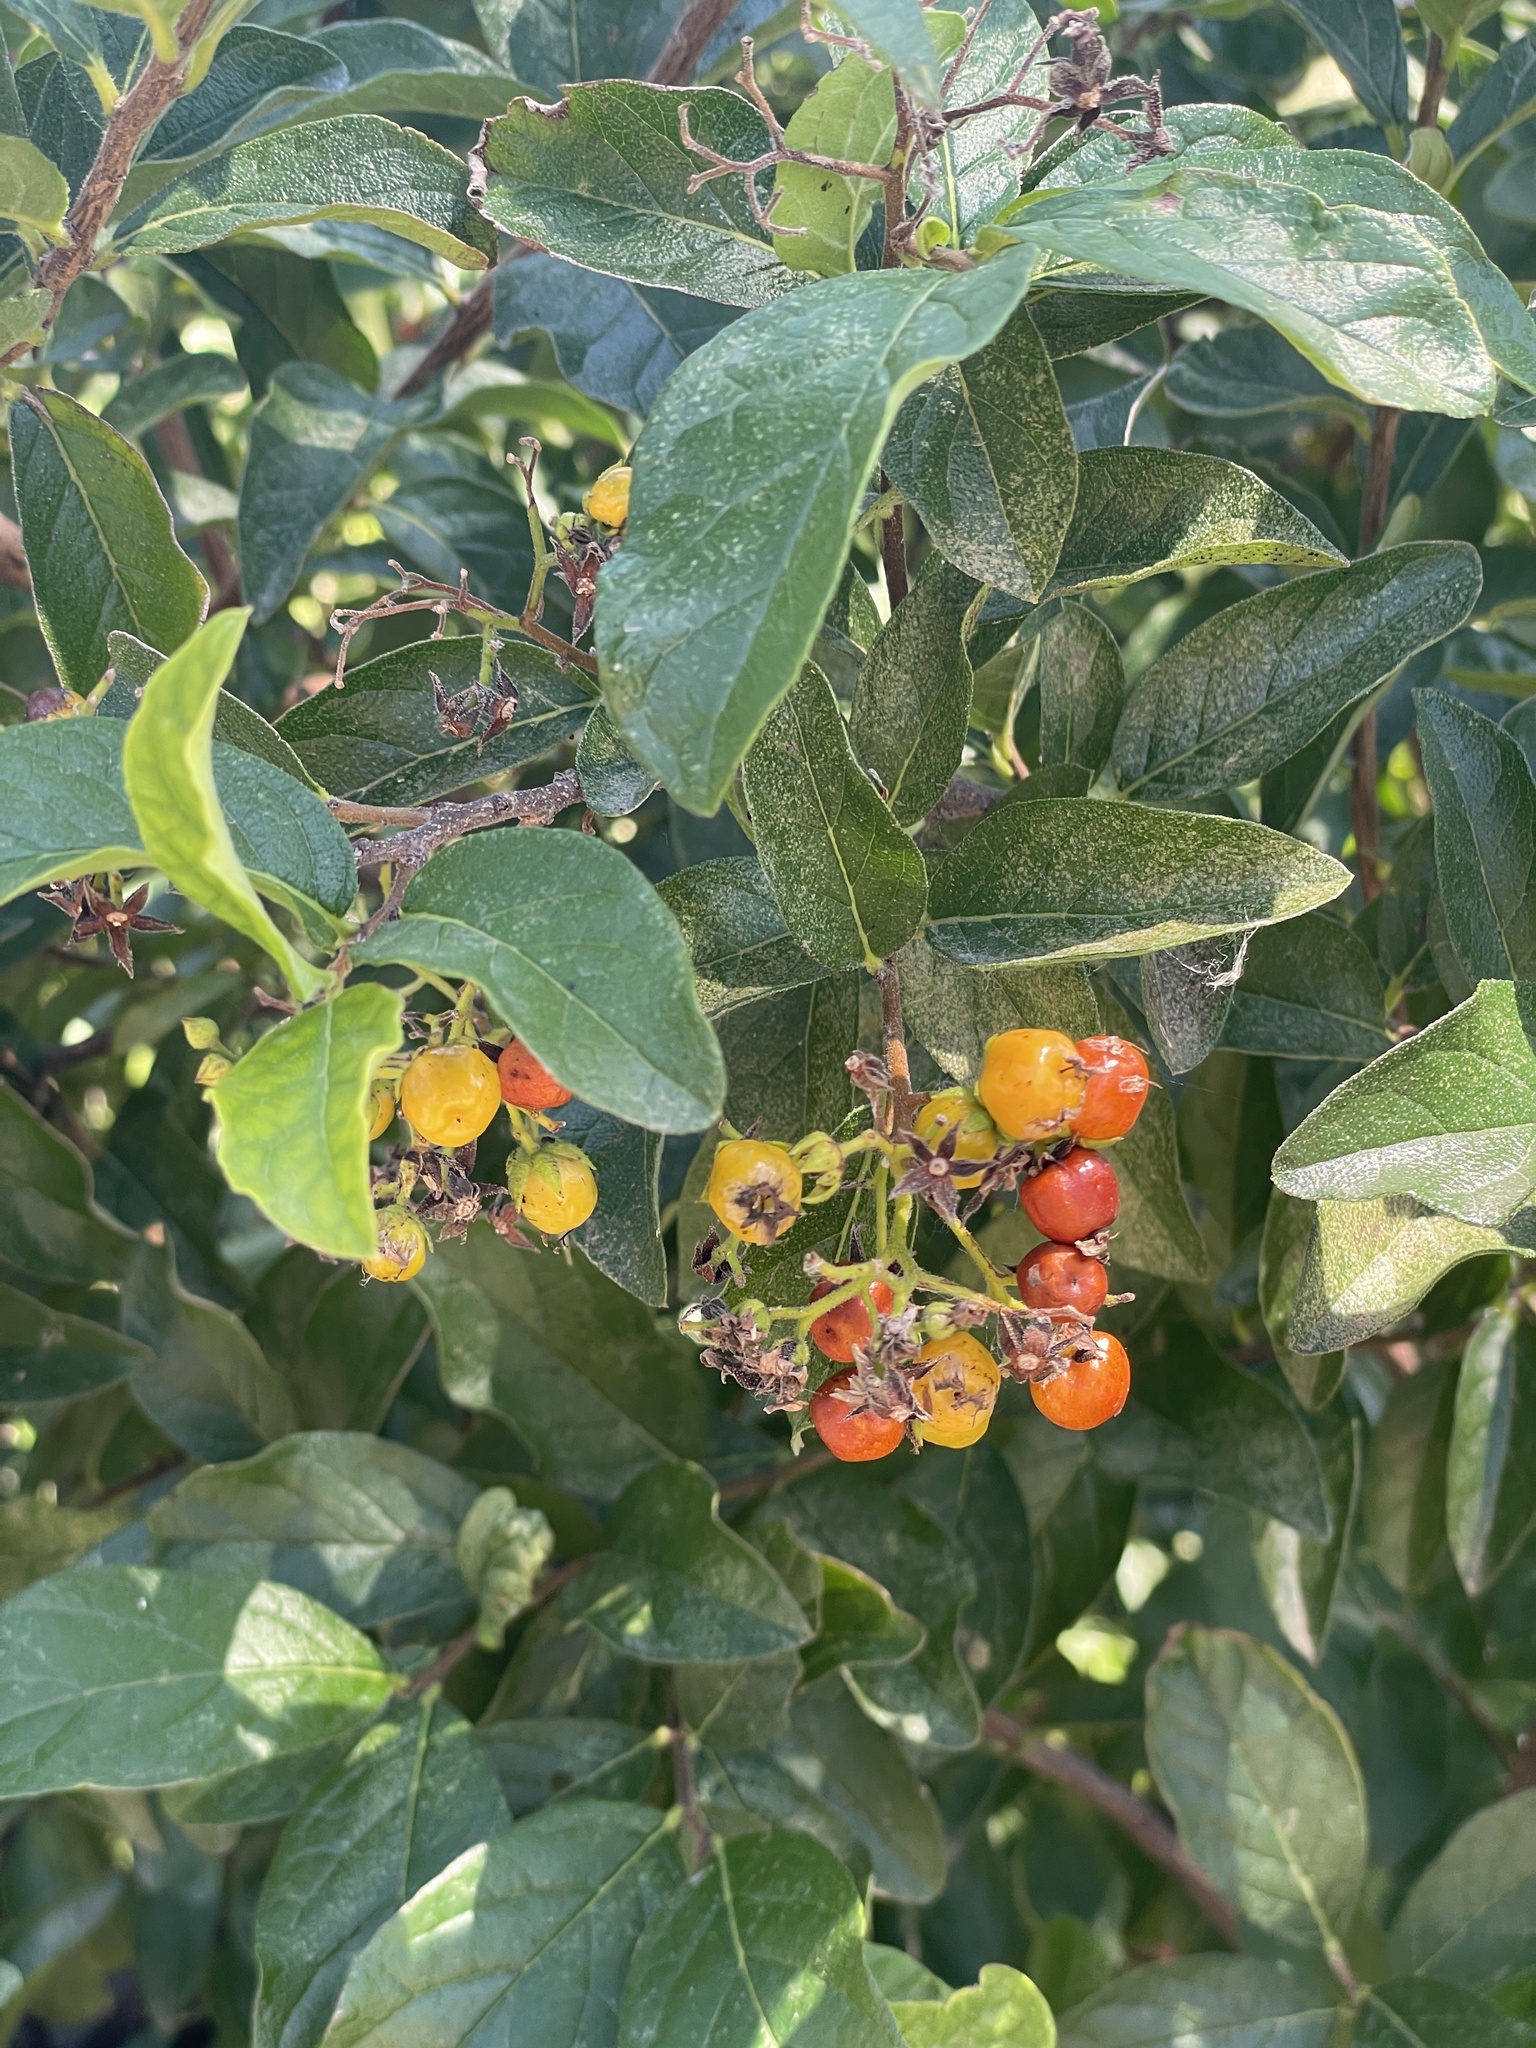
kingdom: Plantae
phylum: Tracheophyta
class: Magnoliopsida
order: Boraginales
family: Ehretiaceae
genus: Ehretia
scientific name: Ehretia anacua
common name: Sugarberry
